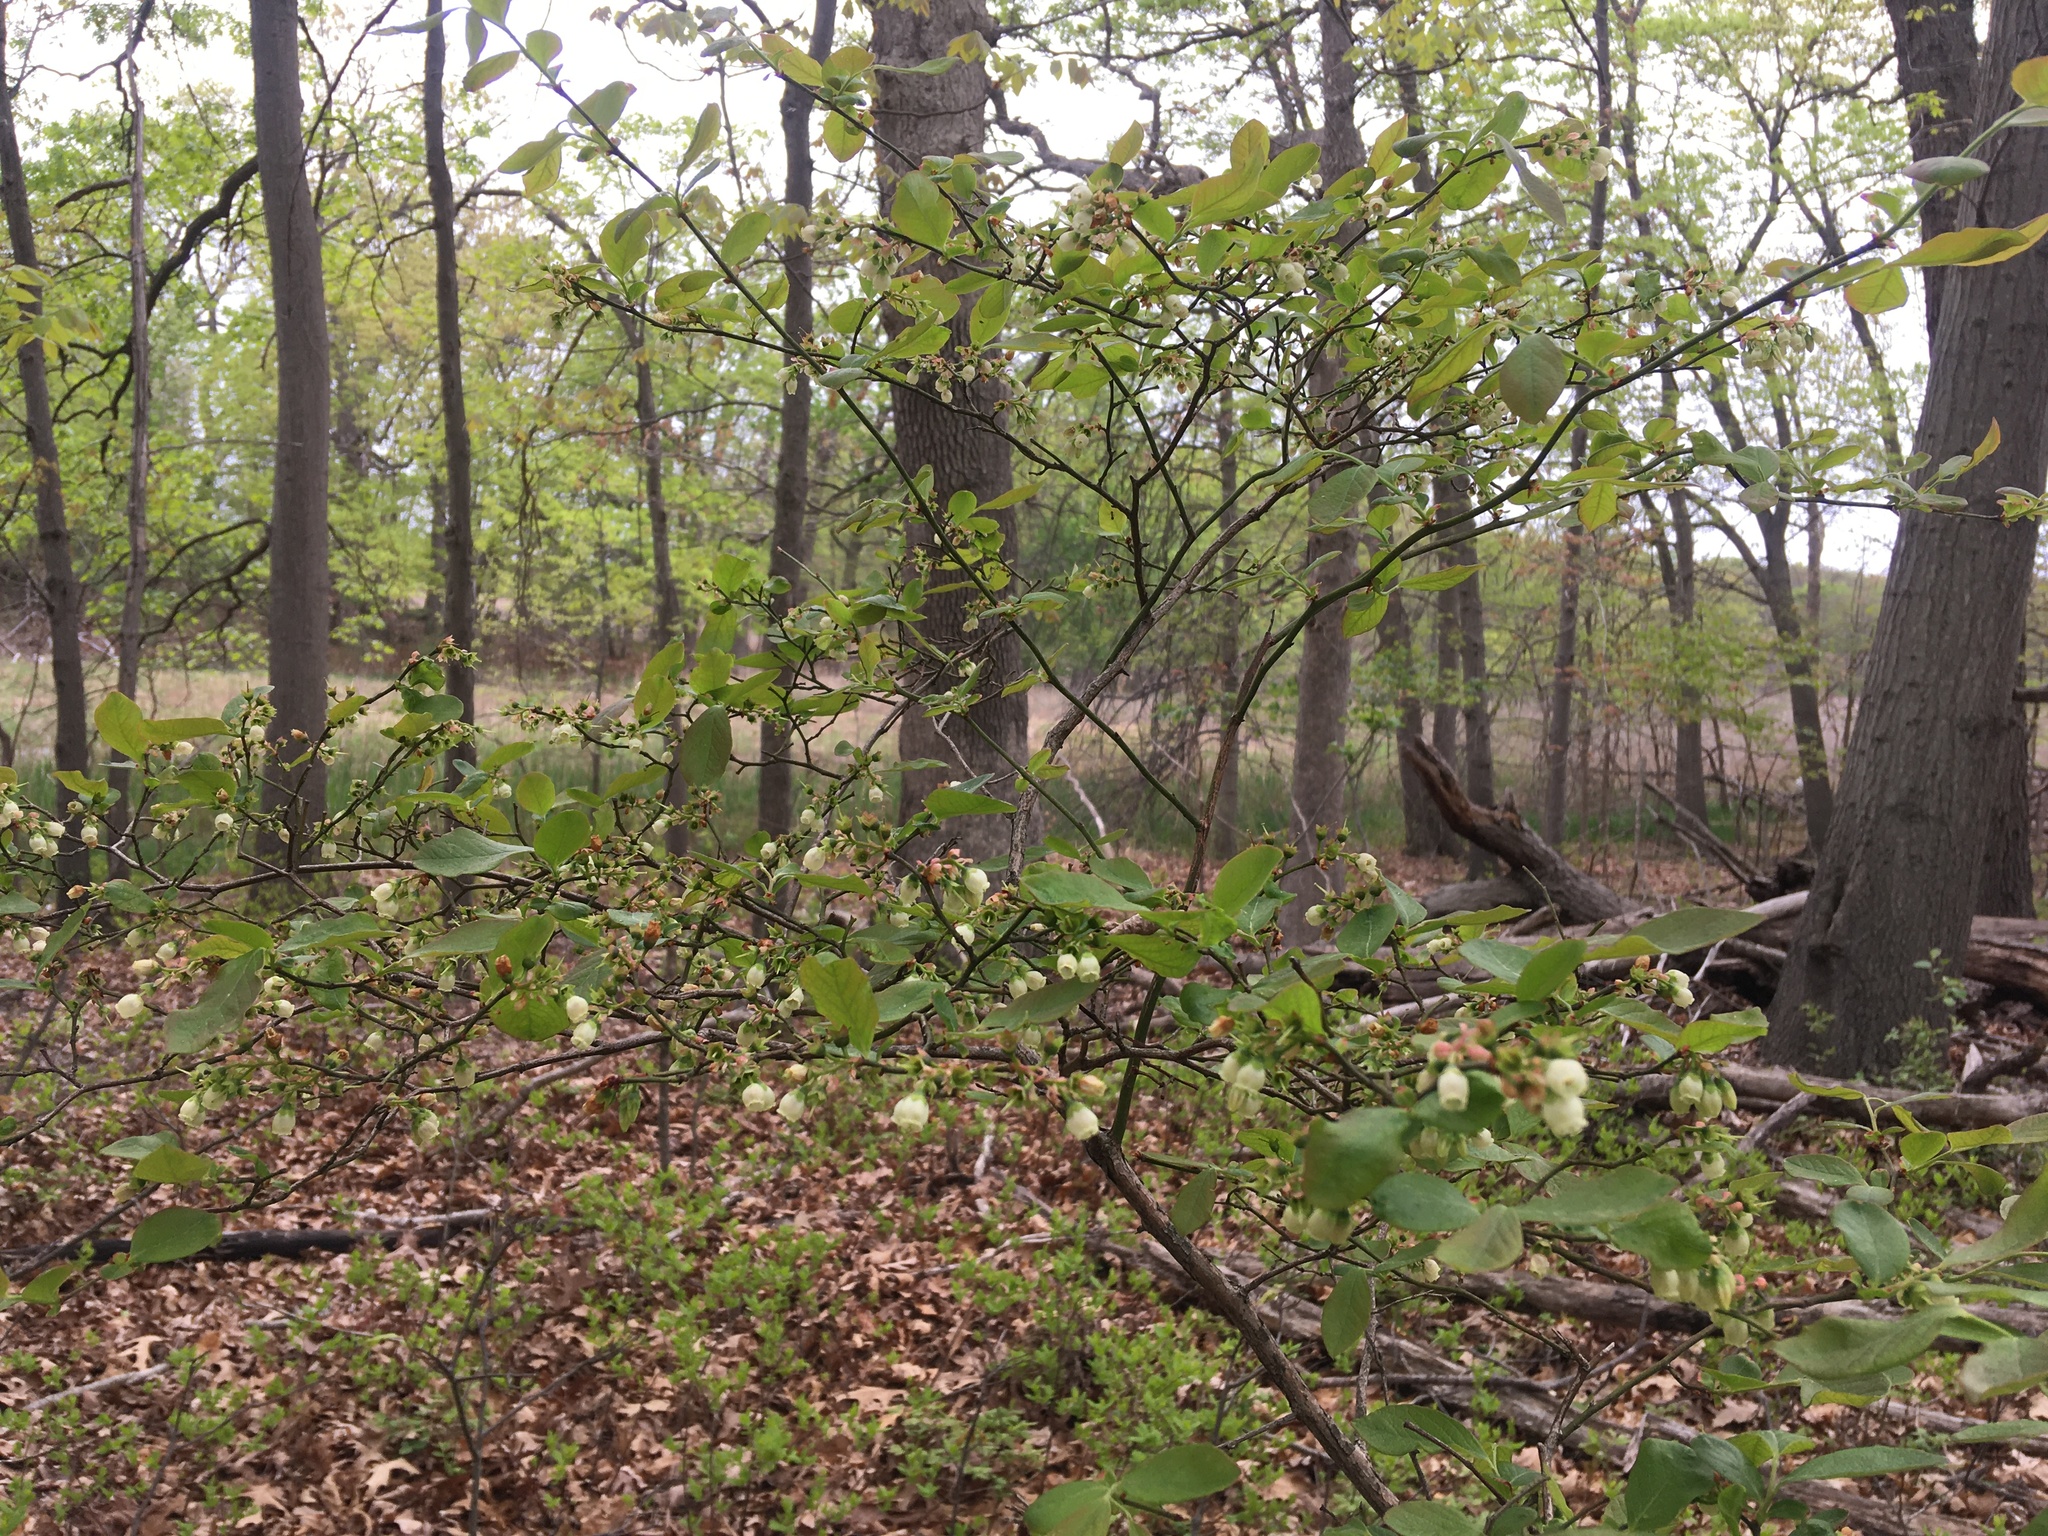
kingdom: Plantae
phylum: Tracheophyta
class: Magnoliopsida
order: Ericales
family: Ericaceae
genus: Vaccinium
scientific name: Vaccinium pallidum
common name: Blue ridge blueberry
